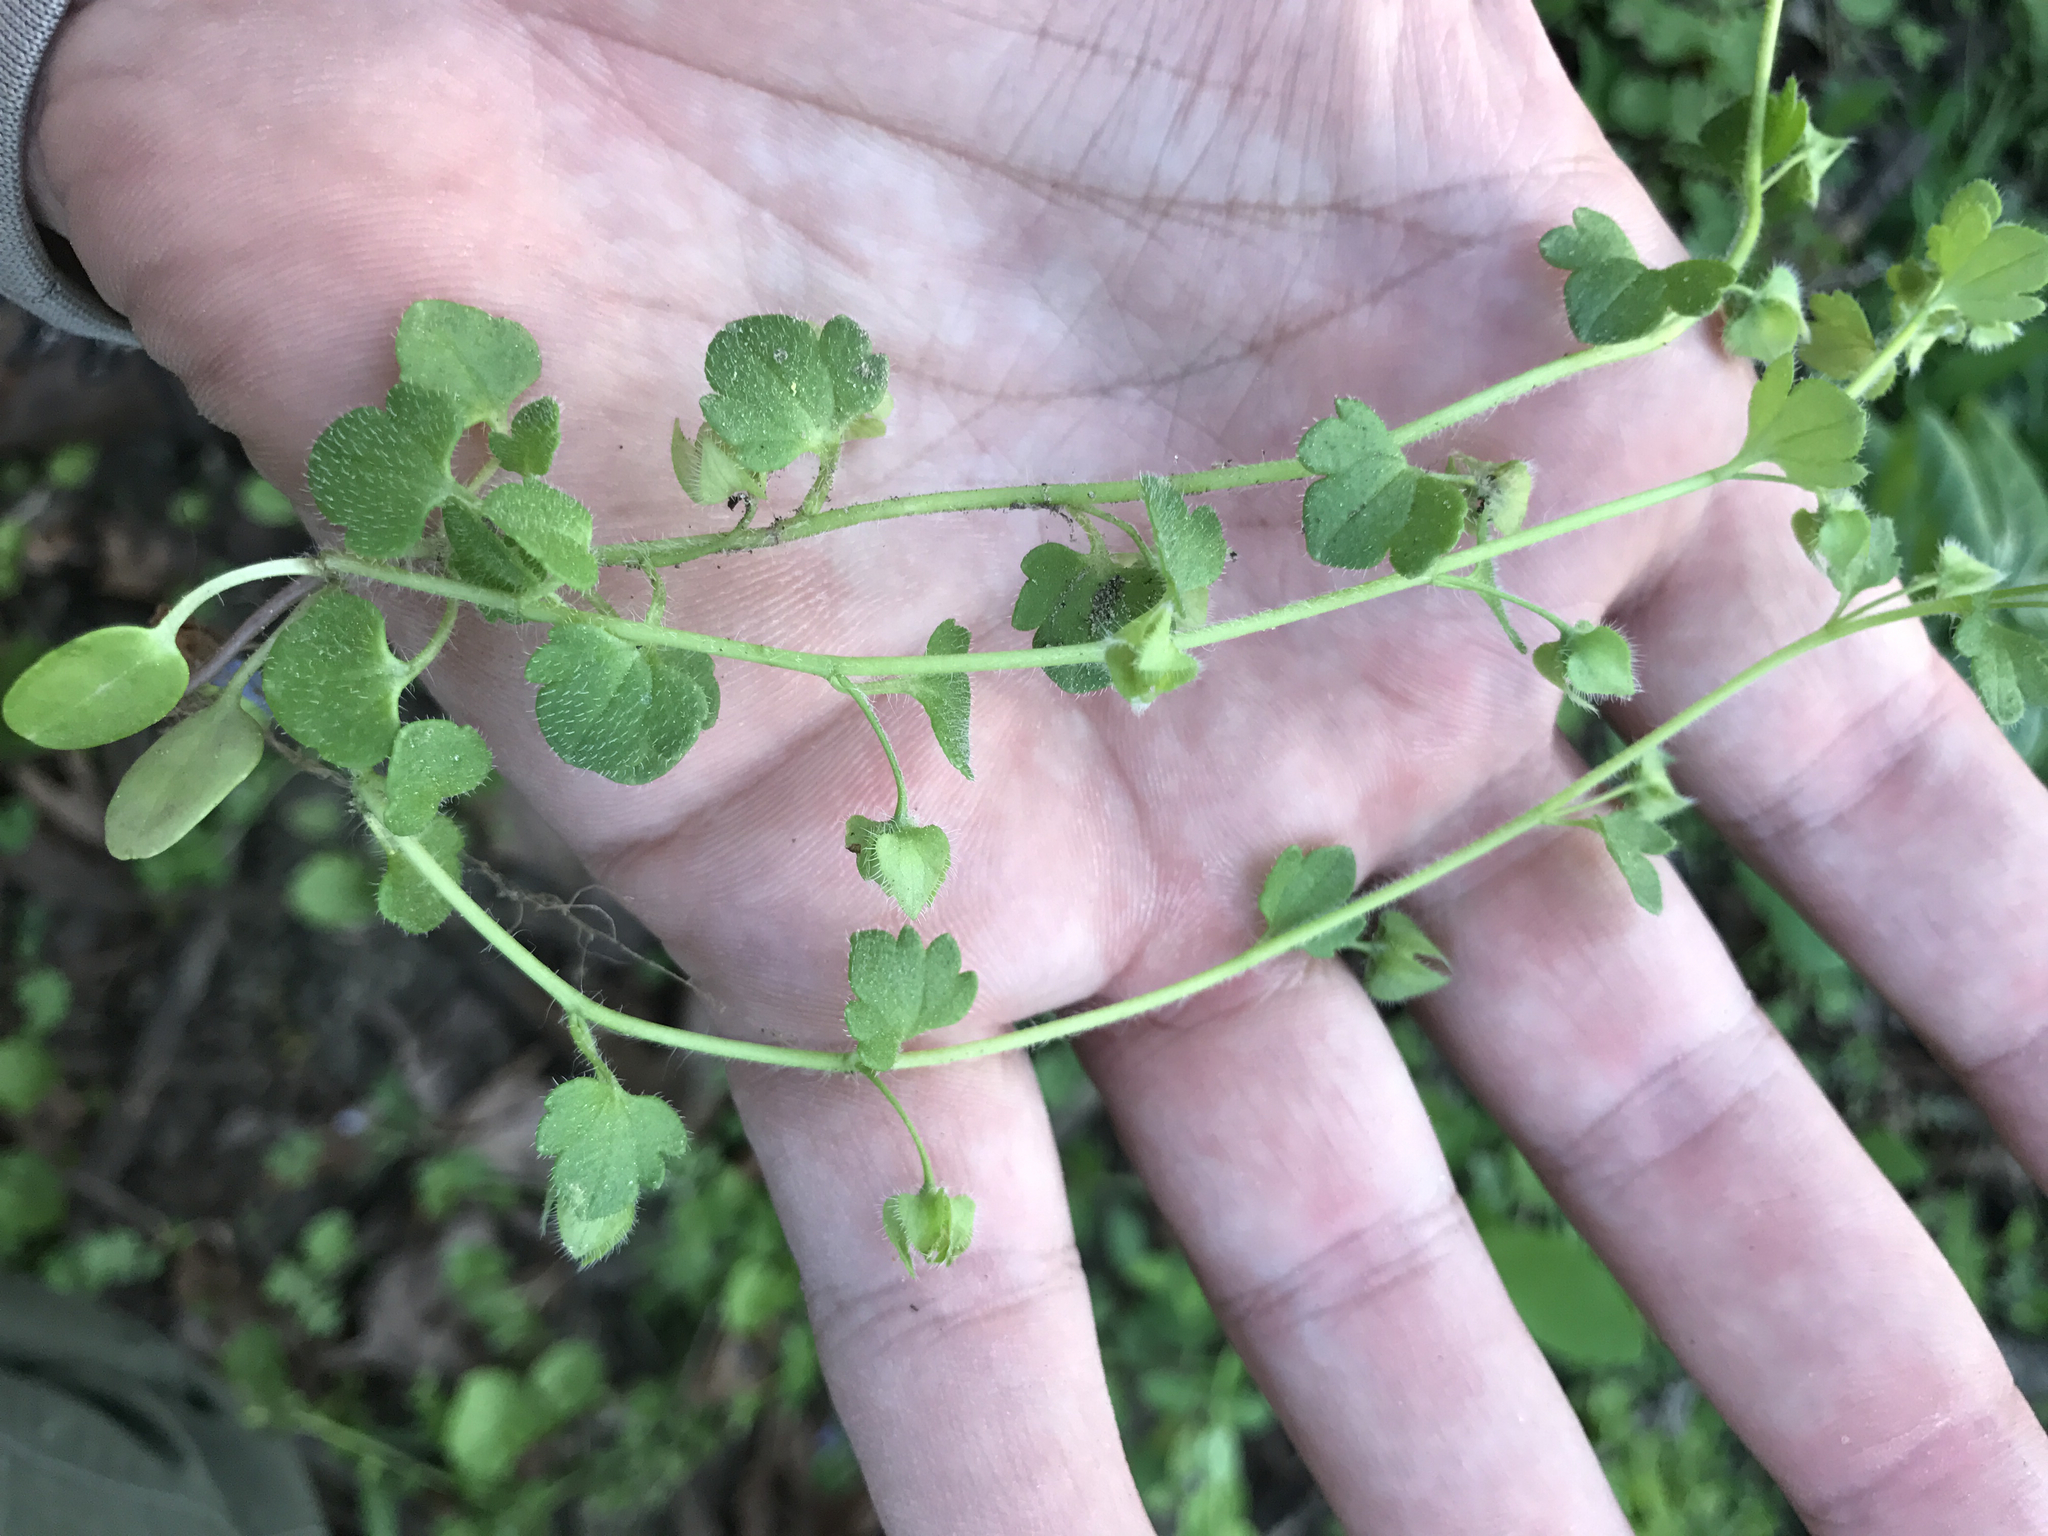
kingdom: Plantae
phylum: Tracheophyta
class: Magnoliopsida
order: Lamiales
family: Plantaginaceae
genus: Veronica
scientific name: Veronica hederifolia
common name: Ivy-leaved speedwell
